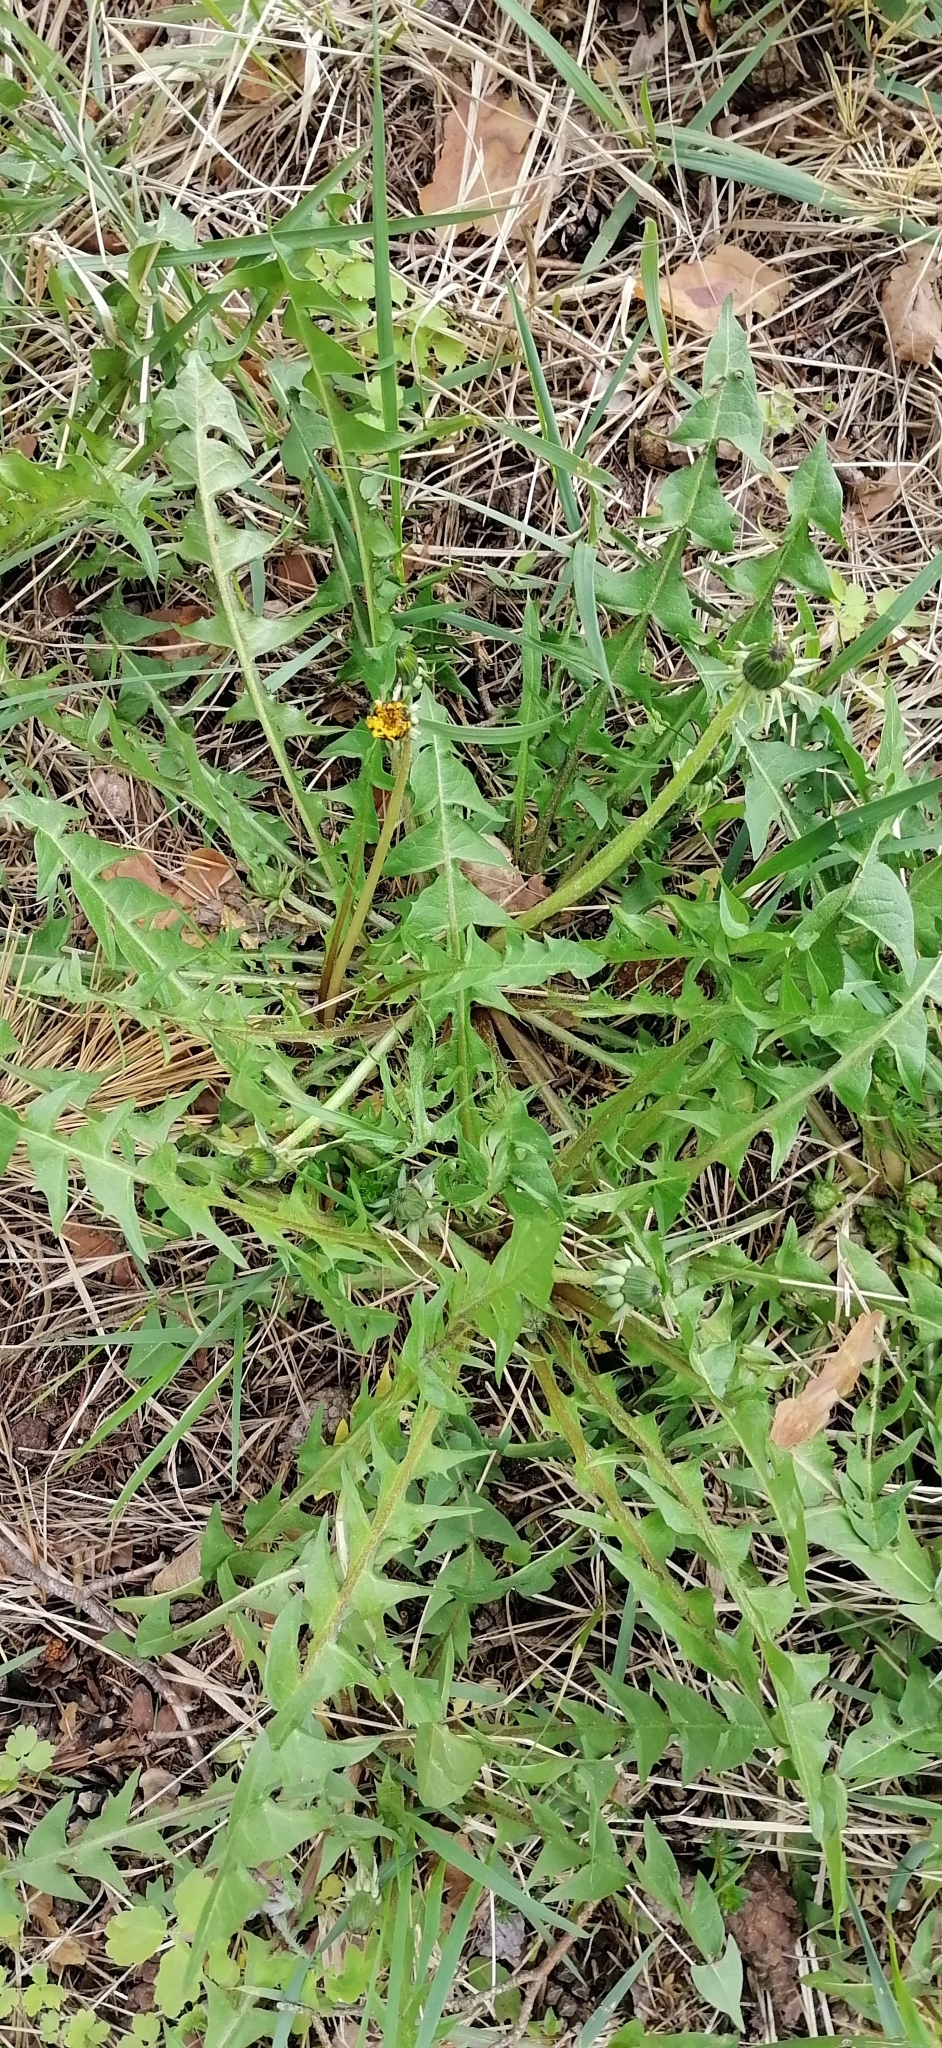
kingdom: Plantae
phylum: Tracheophyta
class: Magnoliopsida
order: Asterales
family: Asteraceae
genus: Taraxacum
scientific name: Taraxacum officinale
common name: Common dandelion
